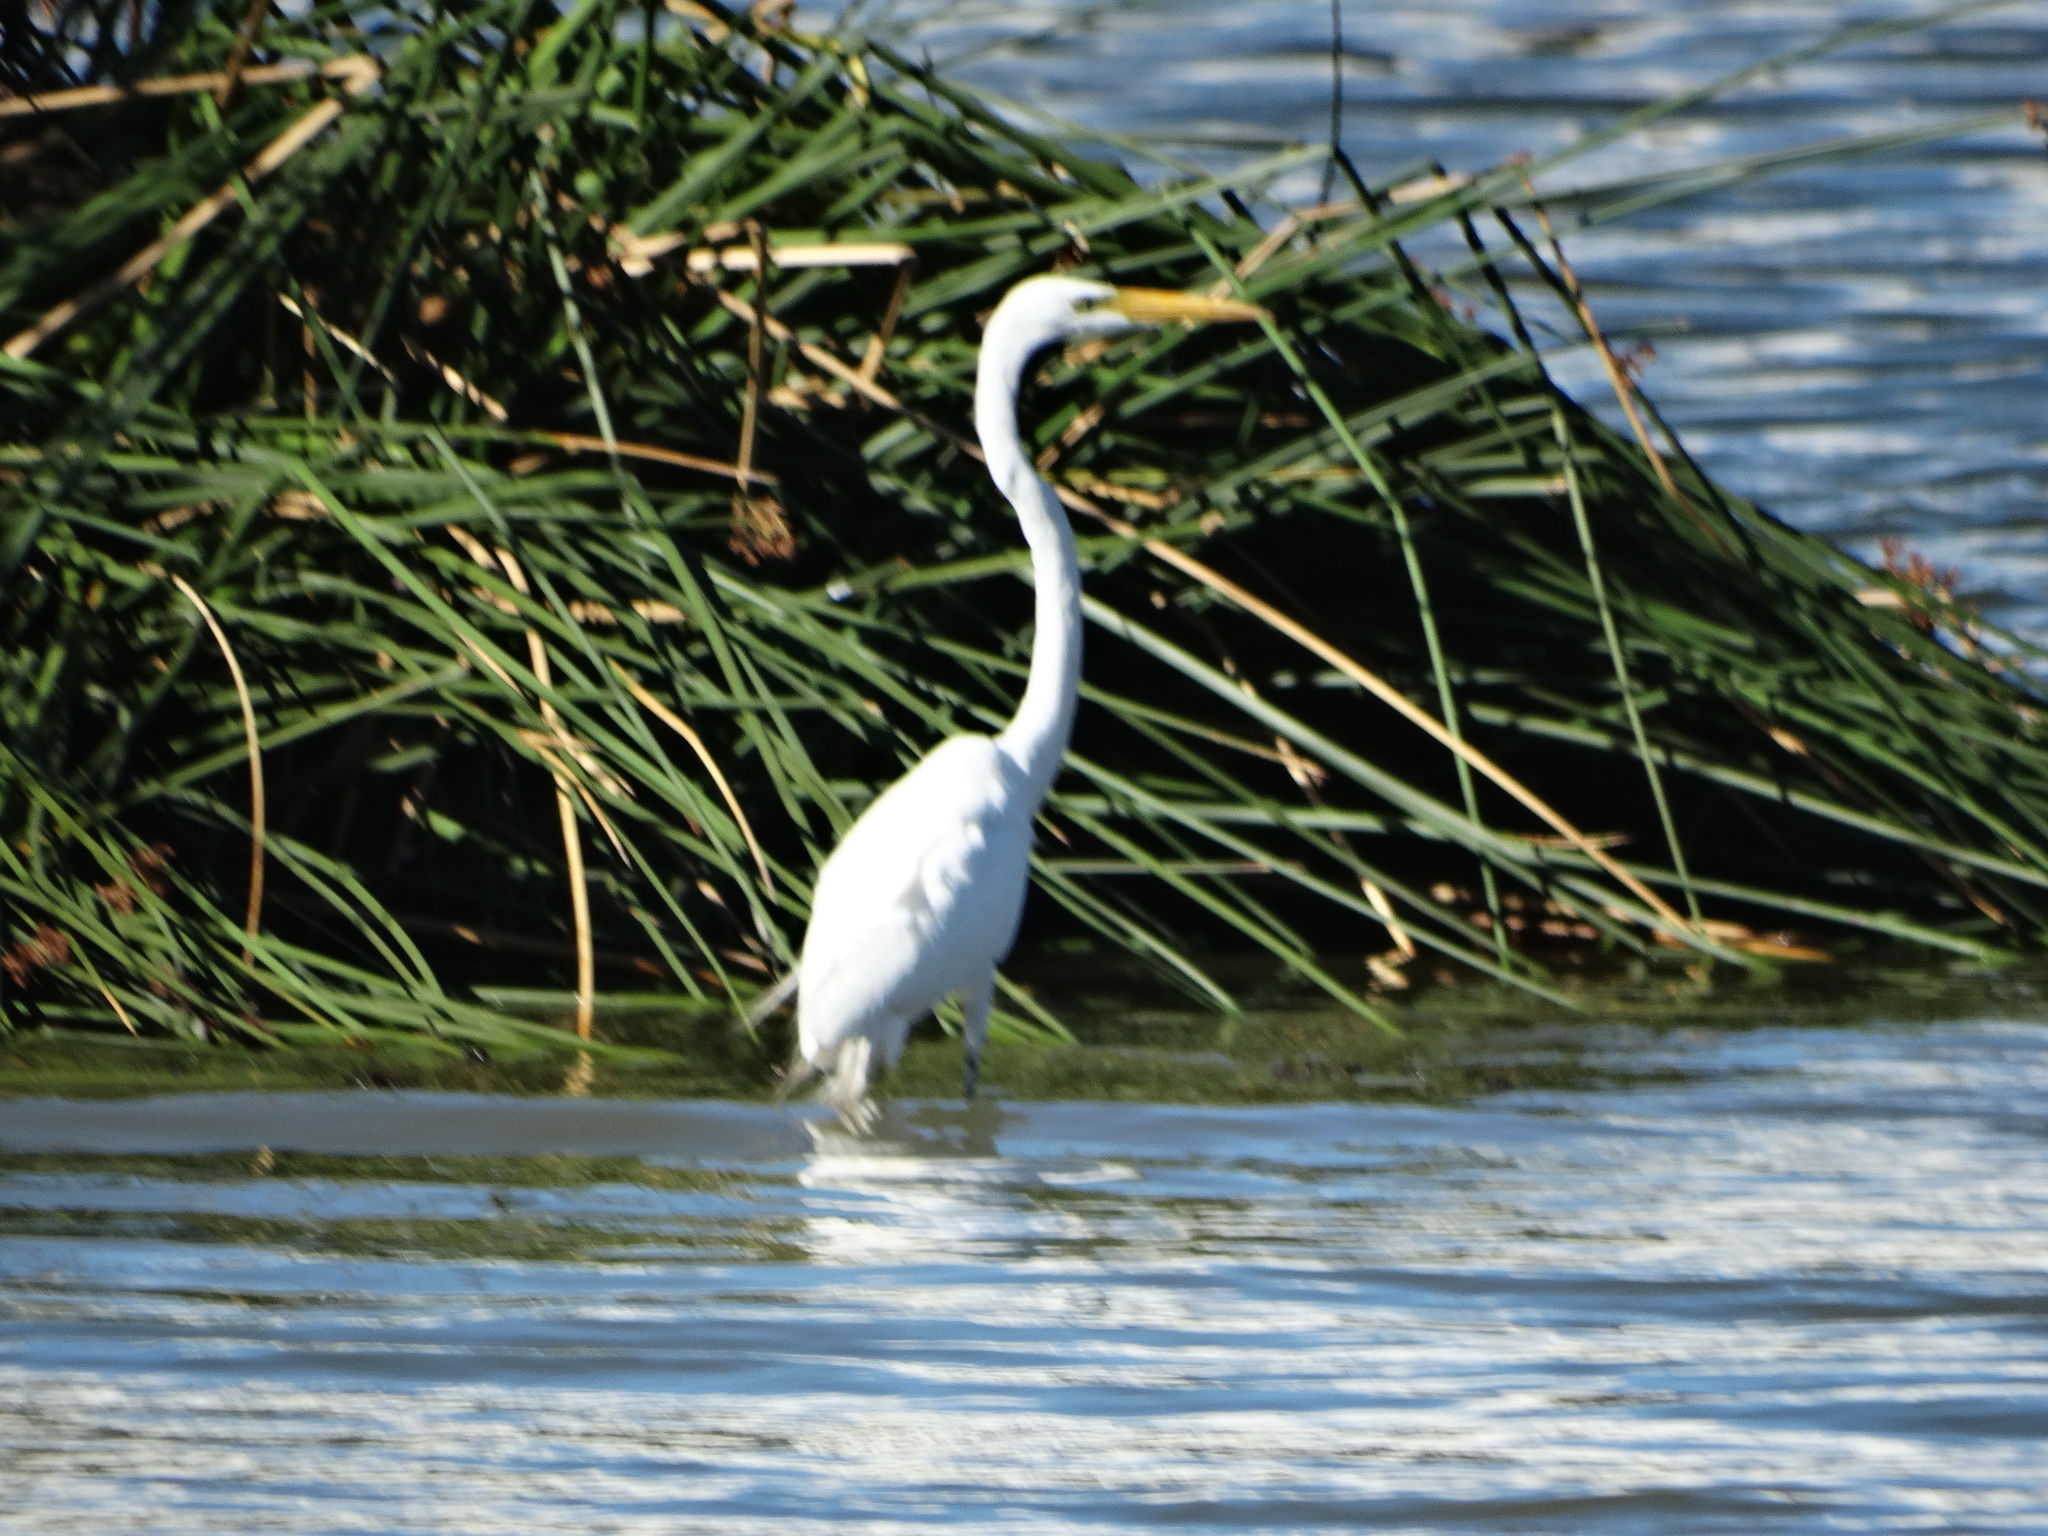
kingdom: Animalia
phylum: Chordata
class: Aves
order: Pelecaniformes
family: Ardeidae
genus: Ardea
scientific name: Ardea alba
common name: Great egret
